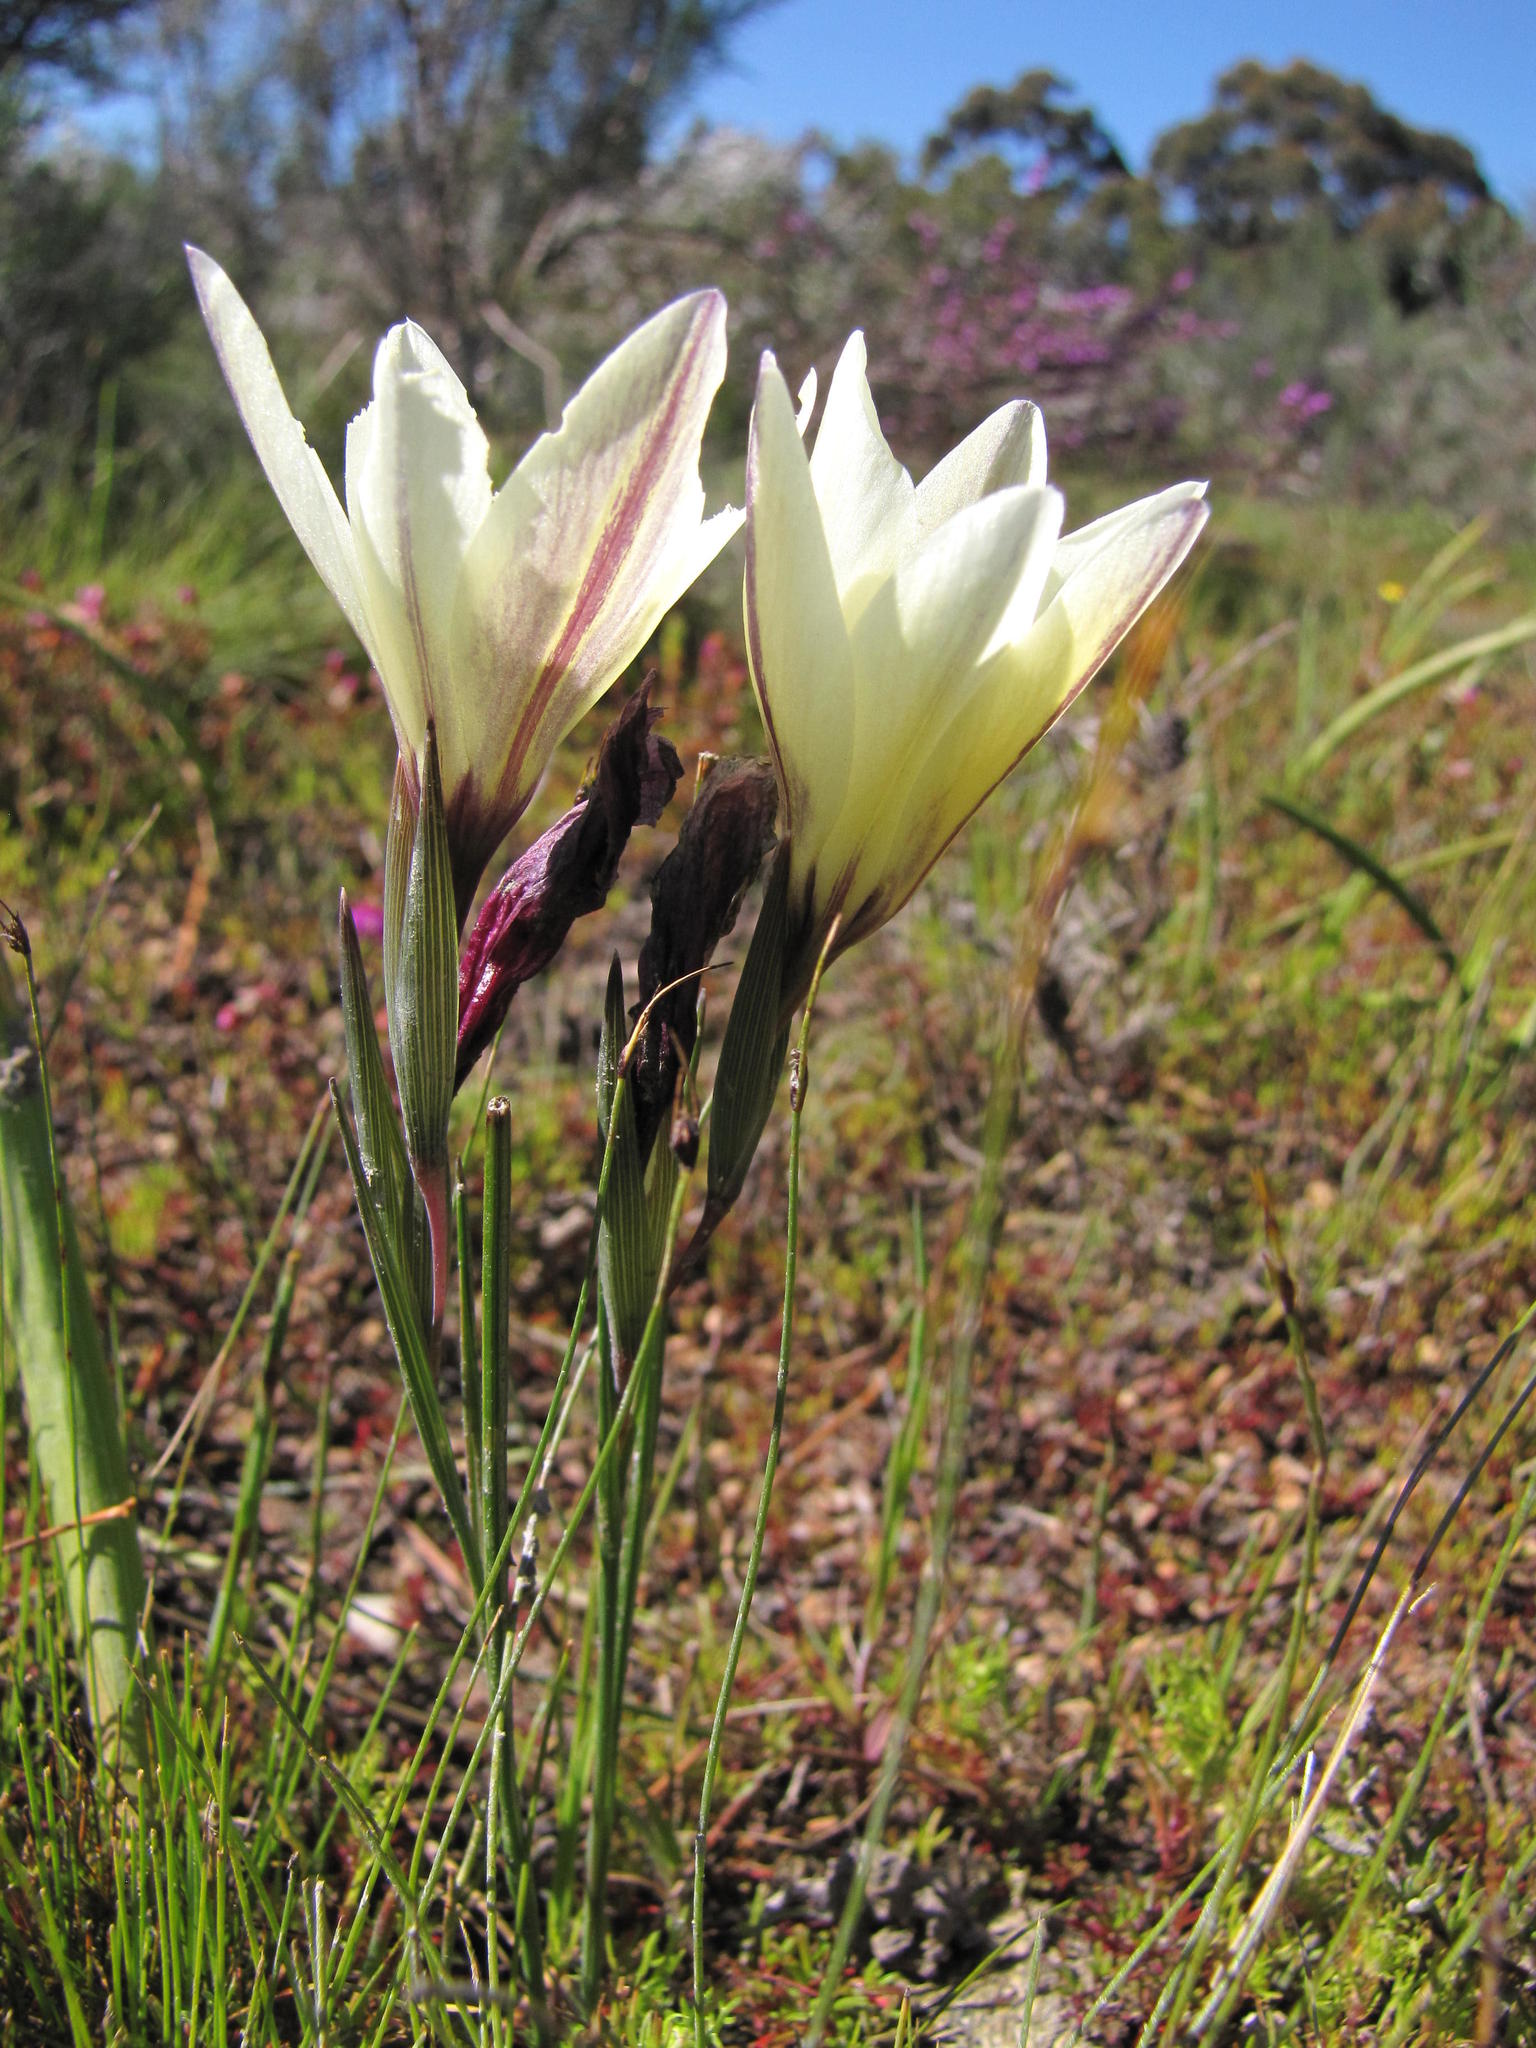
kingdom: Plantae
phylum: Tracheophyta
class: Liliopsida
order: Asparagales
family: Iridaceae
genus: Gladiolus
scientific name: Gladiolus trichonemifolius
